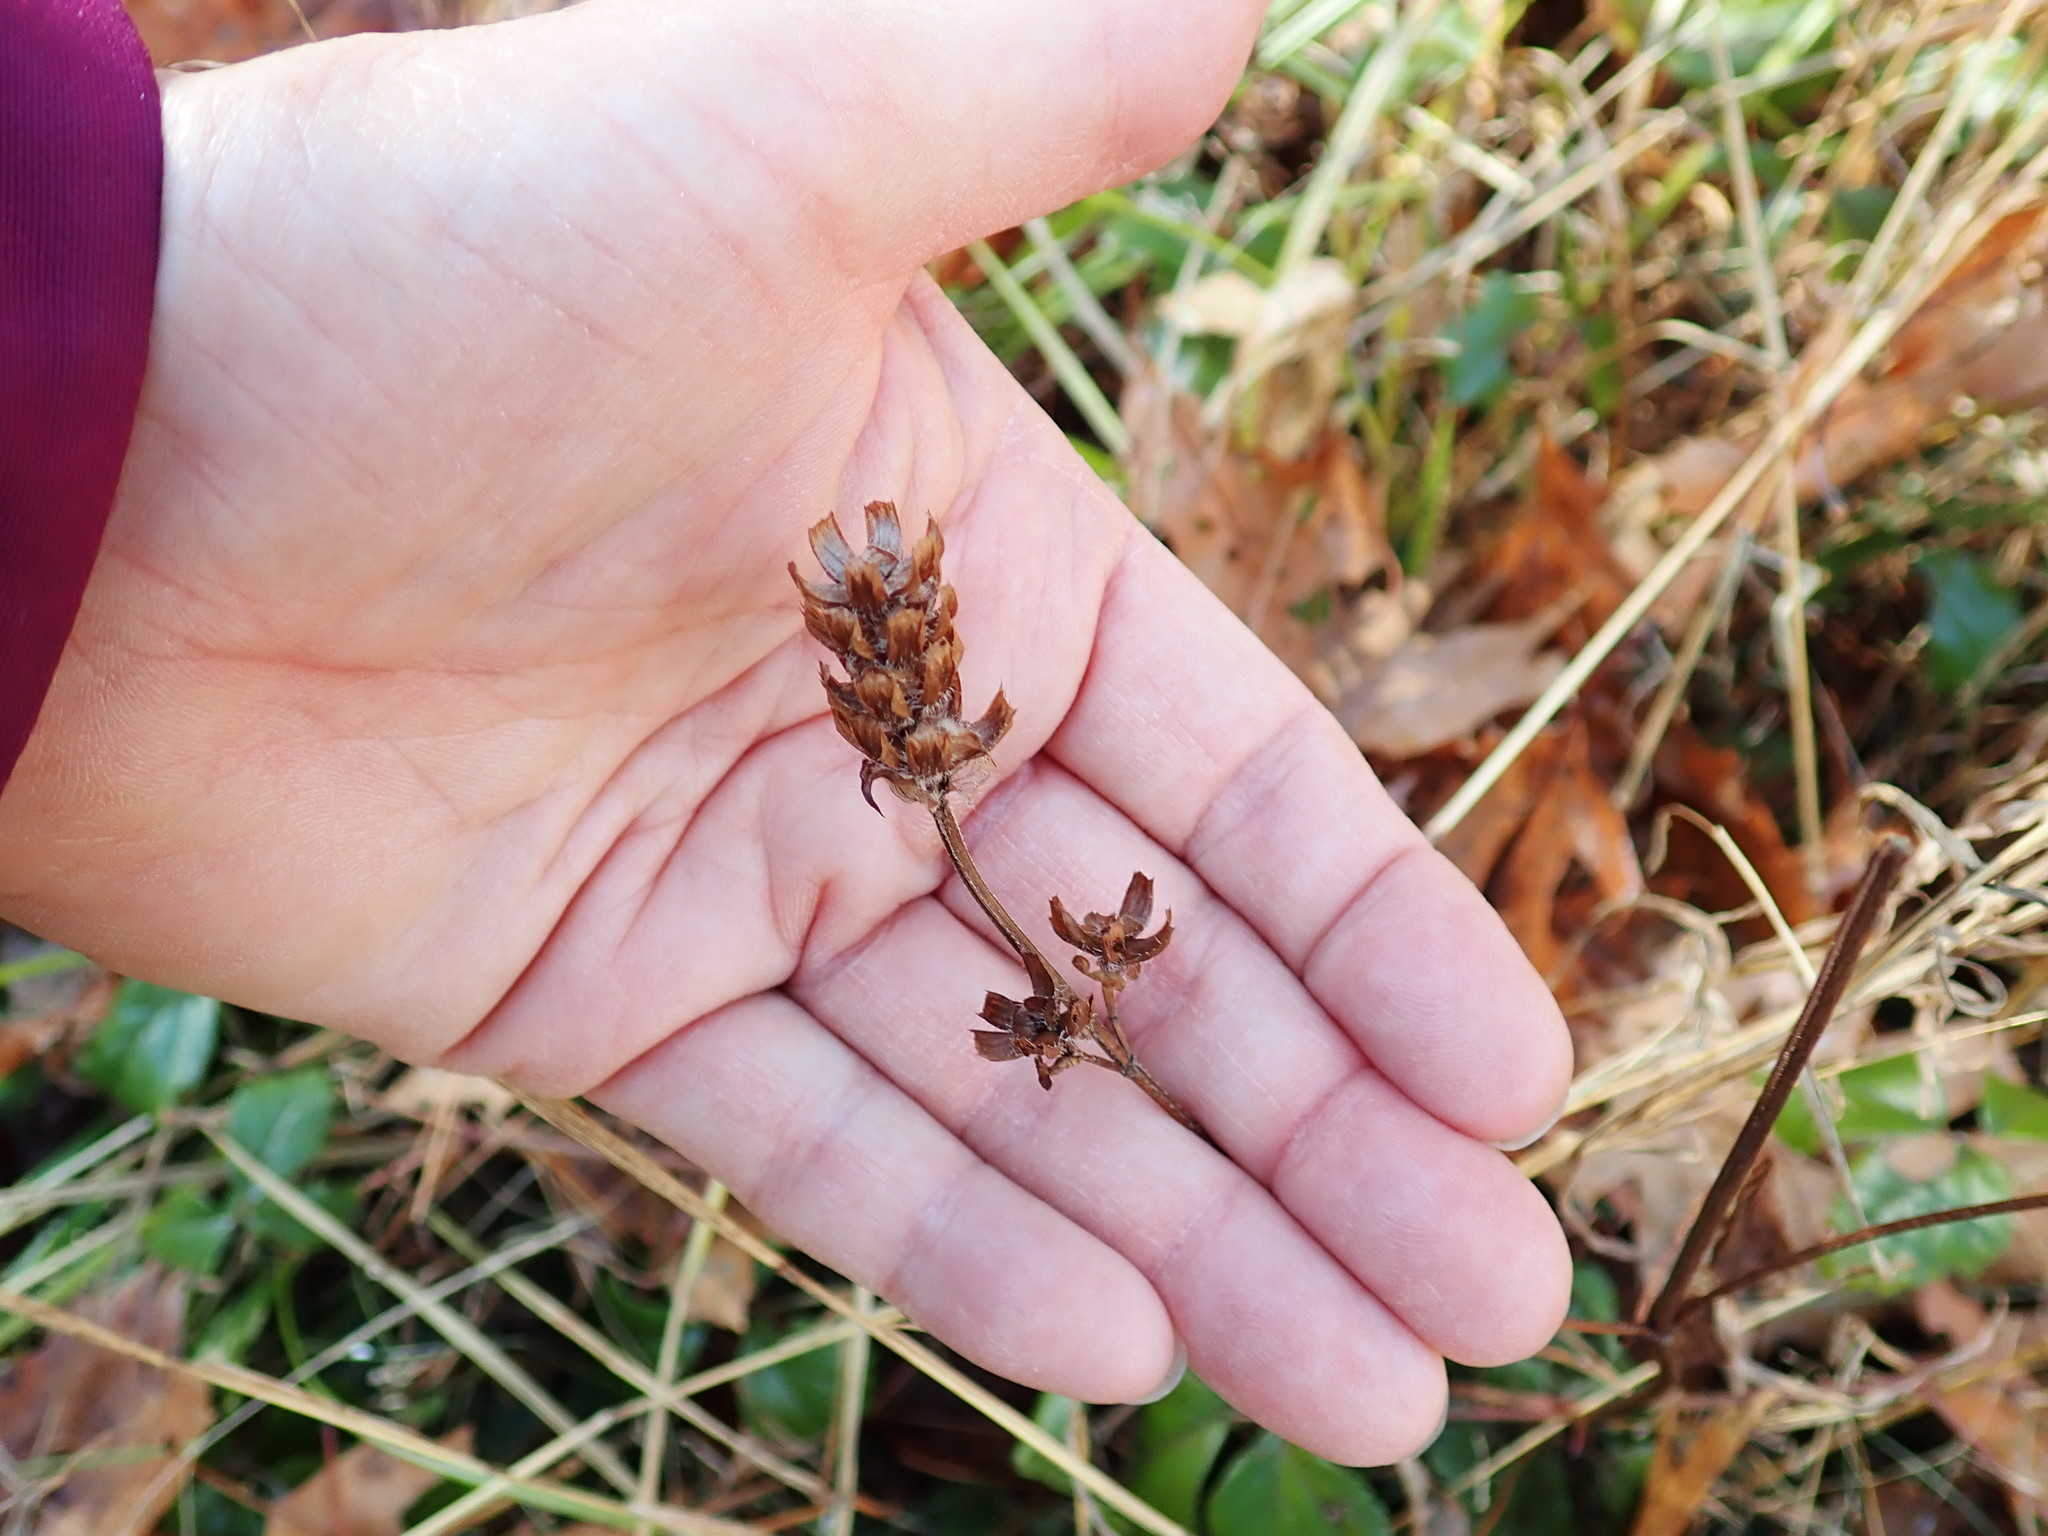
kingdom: Plantae
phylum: Tracheophyta
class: Magnoliopsida
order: Lamiales
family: Lamiaceae
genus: Prunella
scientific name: Prunella vulgaris
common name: Heal-all
